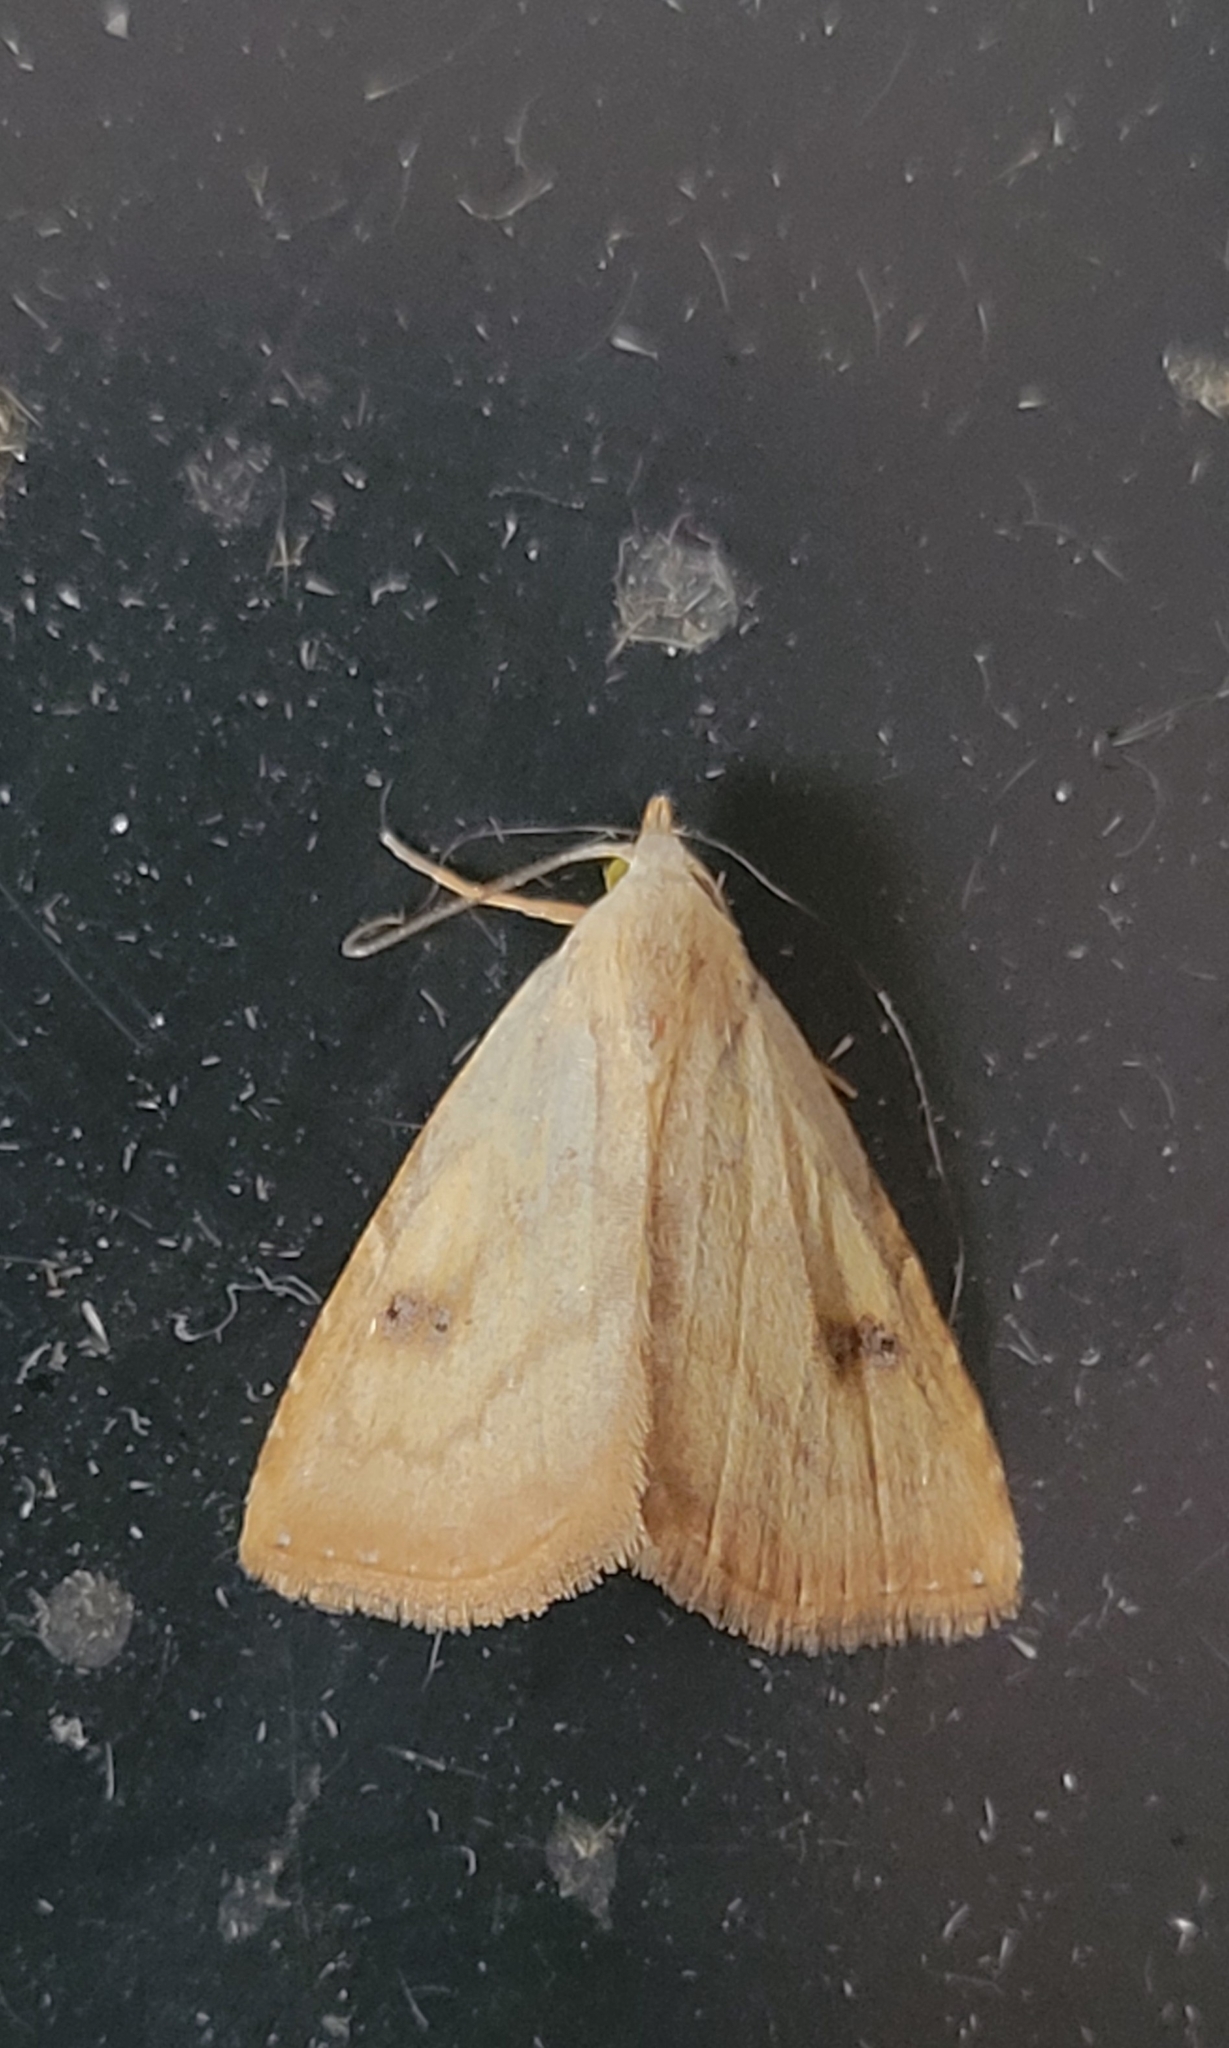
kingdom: Animalia
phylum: Arthropoda
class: Insecta
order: Lepidoptera
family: Erebidae
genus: Rivula
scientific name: Rivula sericealis
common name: Straw dot
